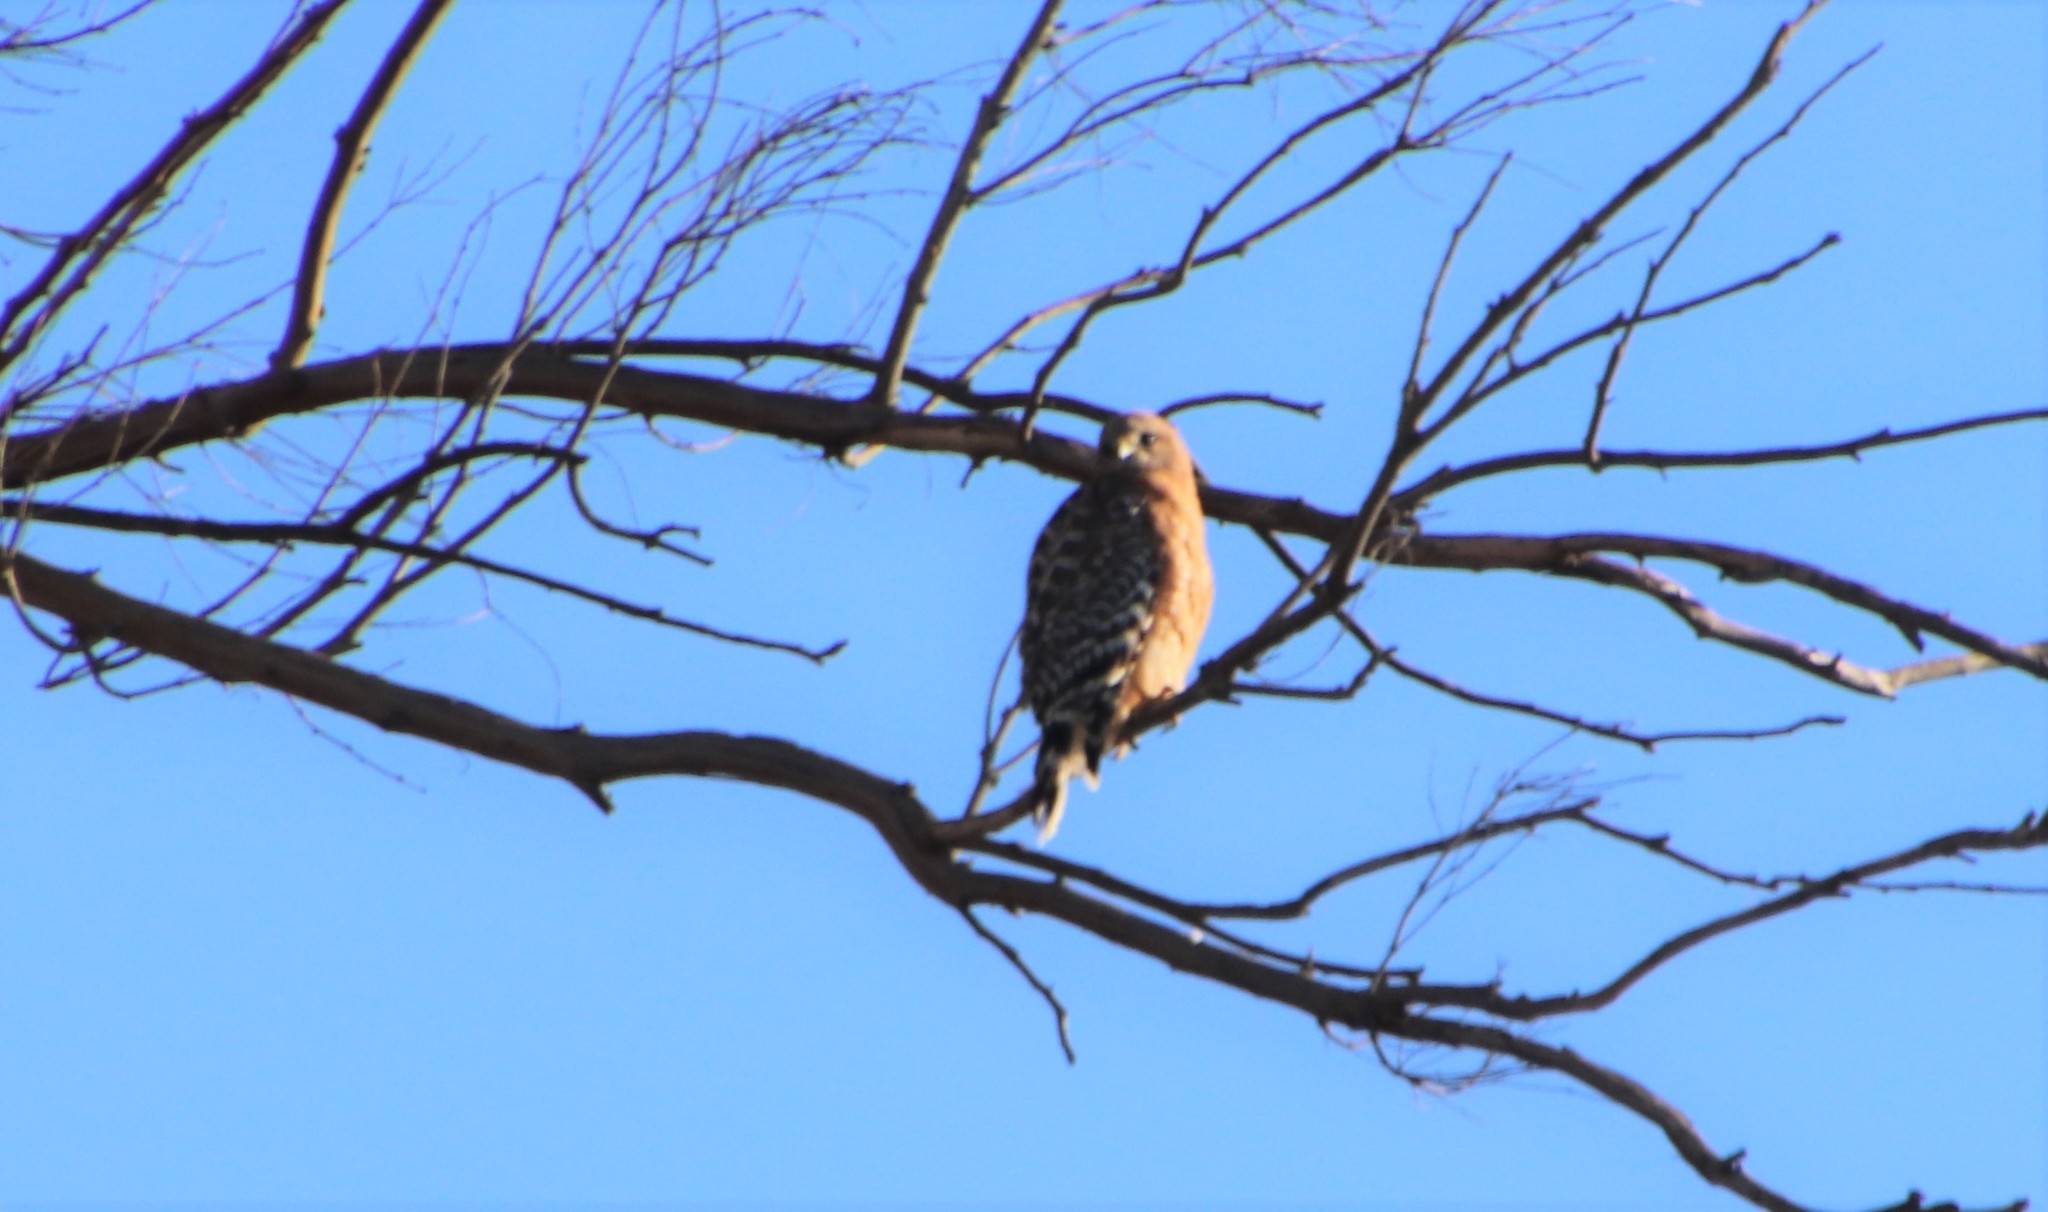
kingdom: Animalia
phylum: Chordata
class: Aves
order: Accipitriformes
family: Accipitridae
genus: Buteo
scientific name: Buteo lineatus
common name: Red-shouldered hawk
